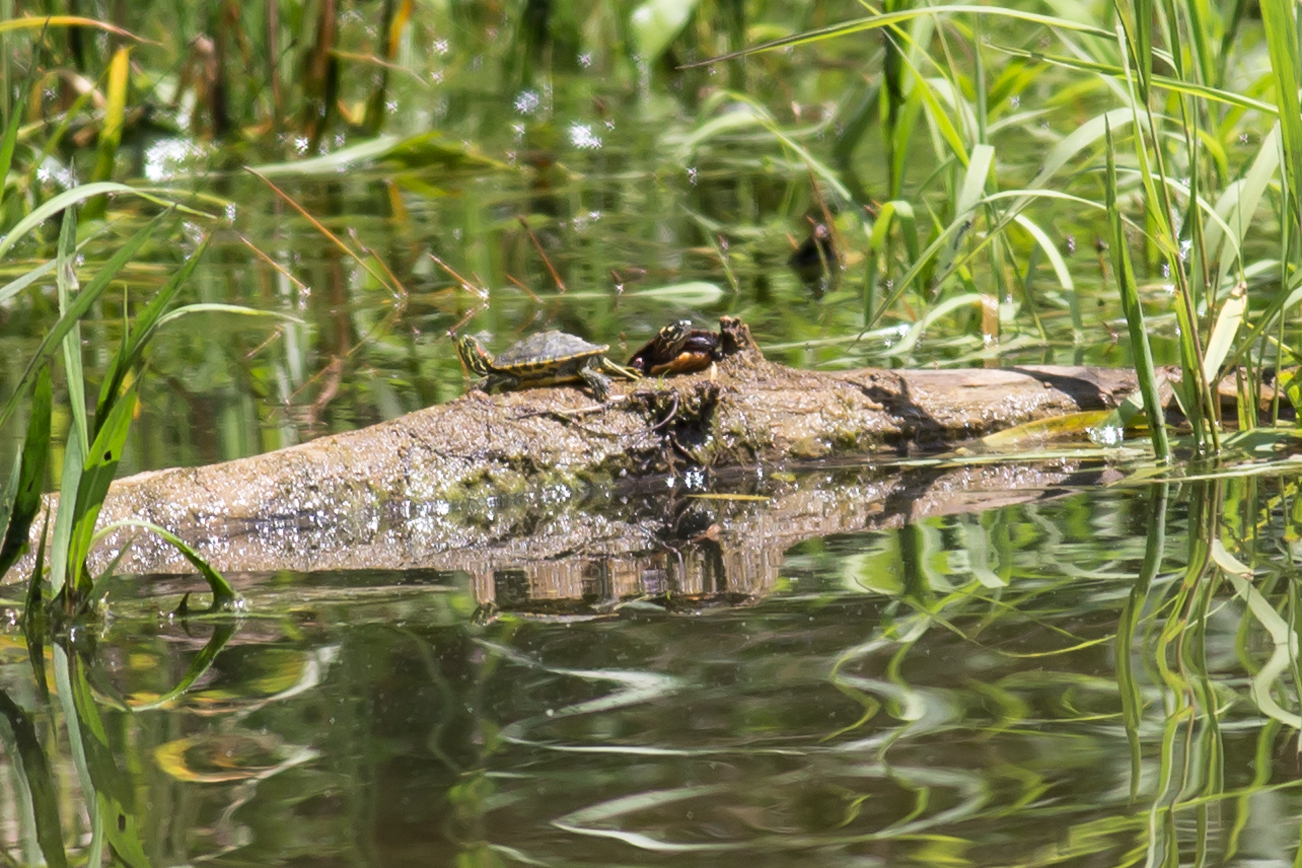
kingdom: Animalia
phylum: Chordata
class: Testudines
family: Emydidae
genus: Trachemys
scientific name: Trachemys scripta
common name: Slider
